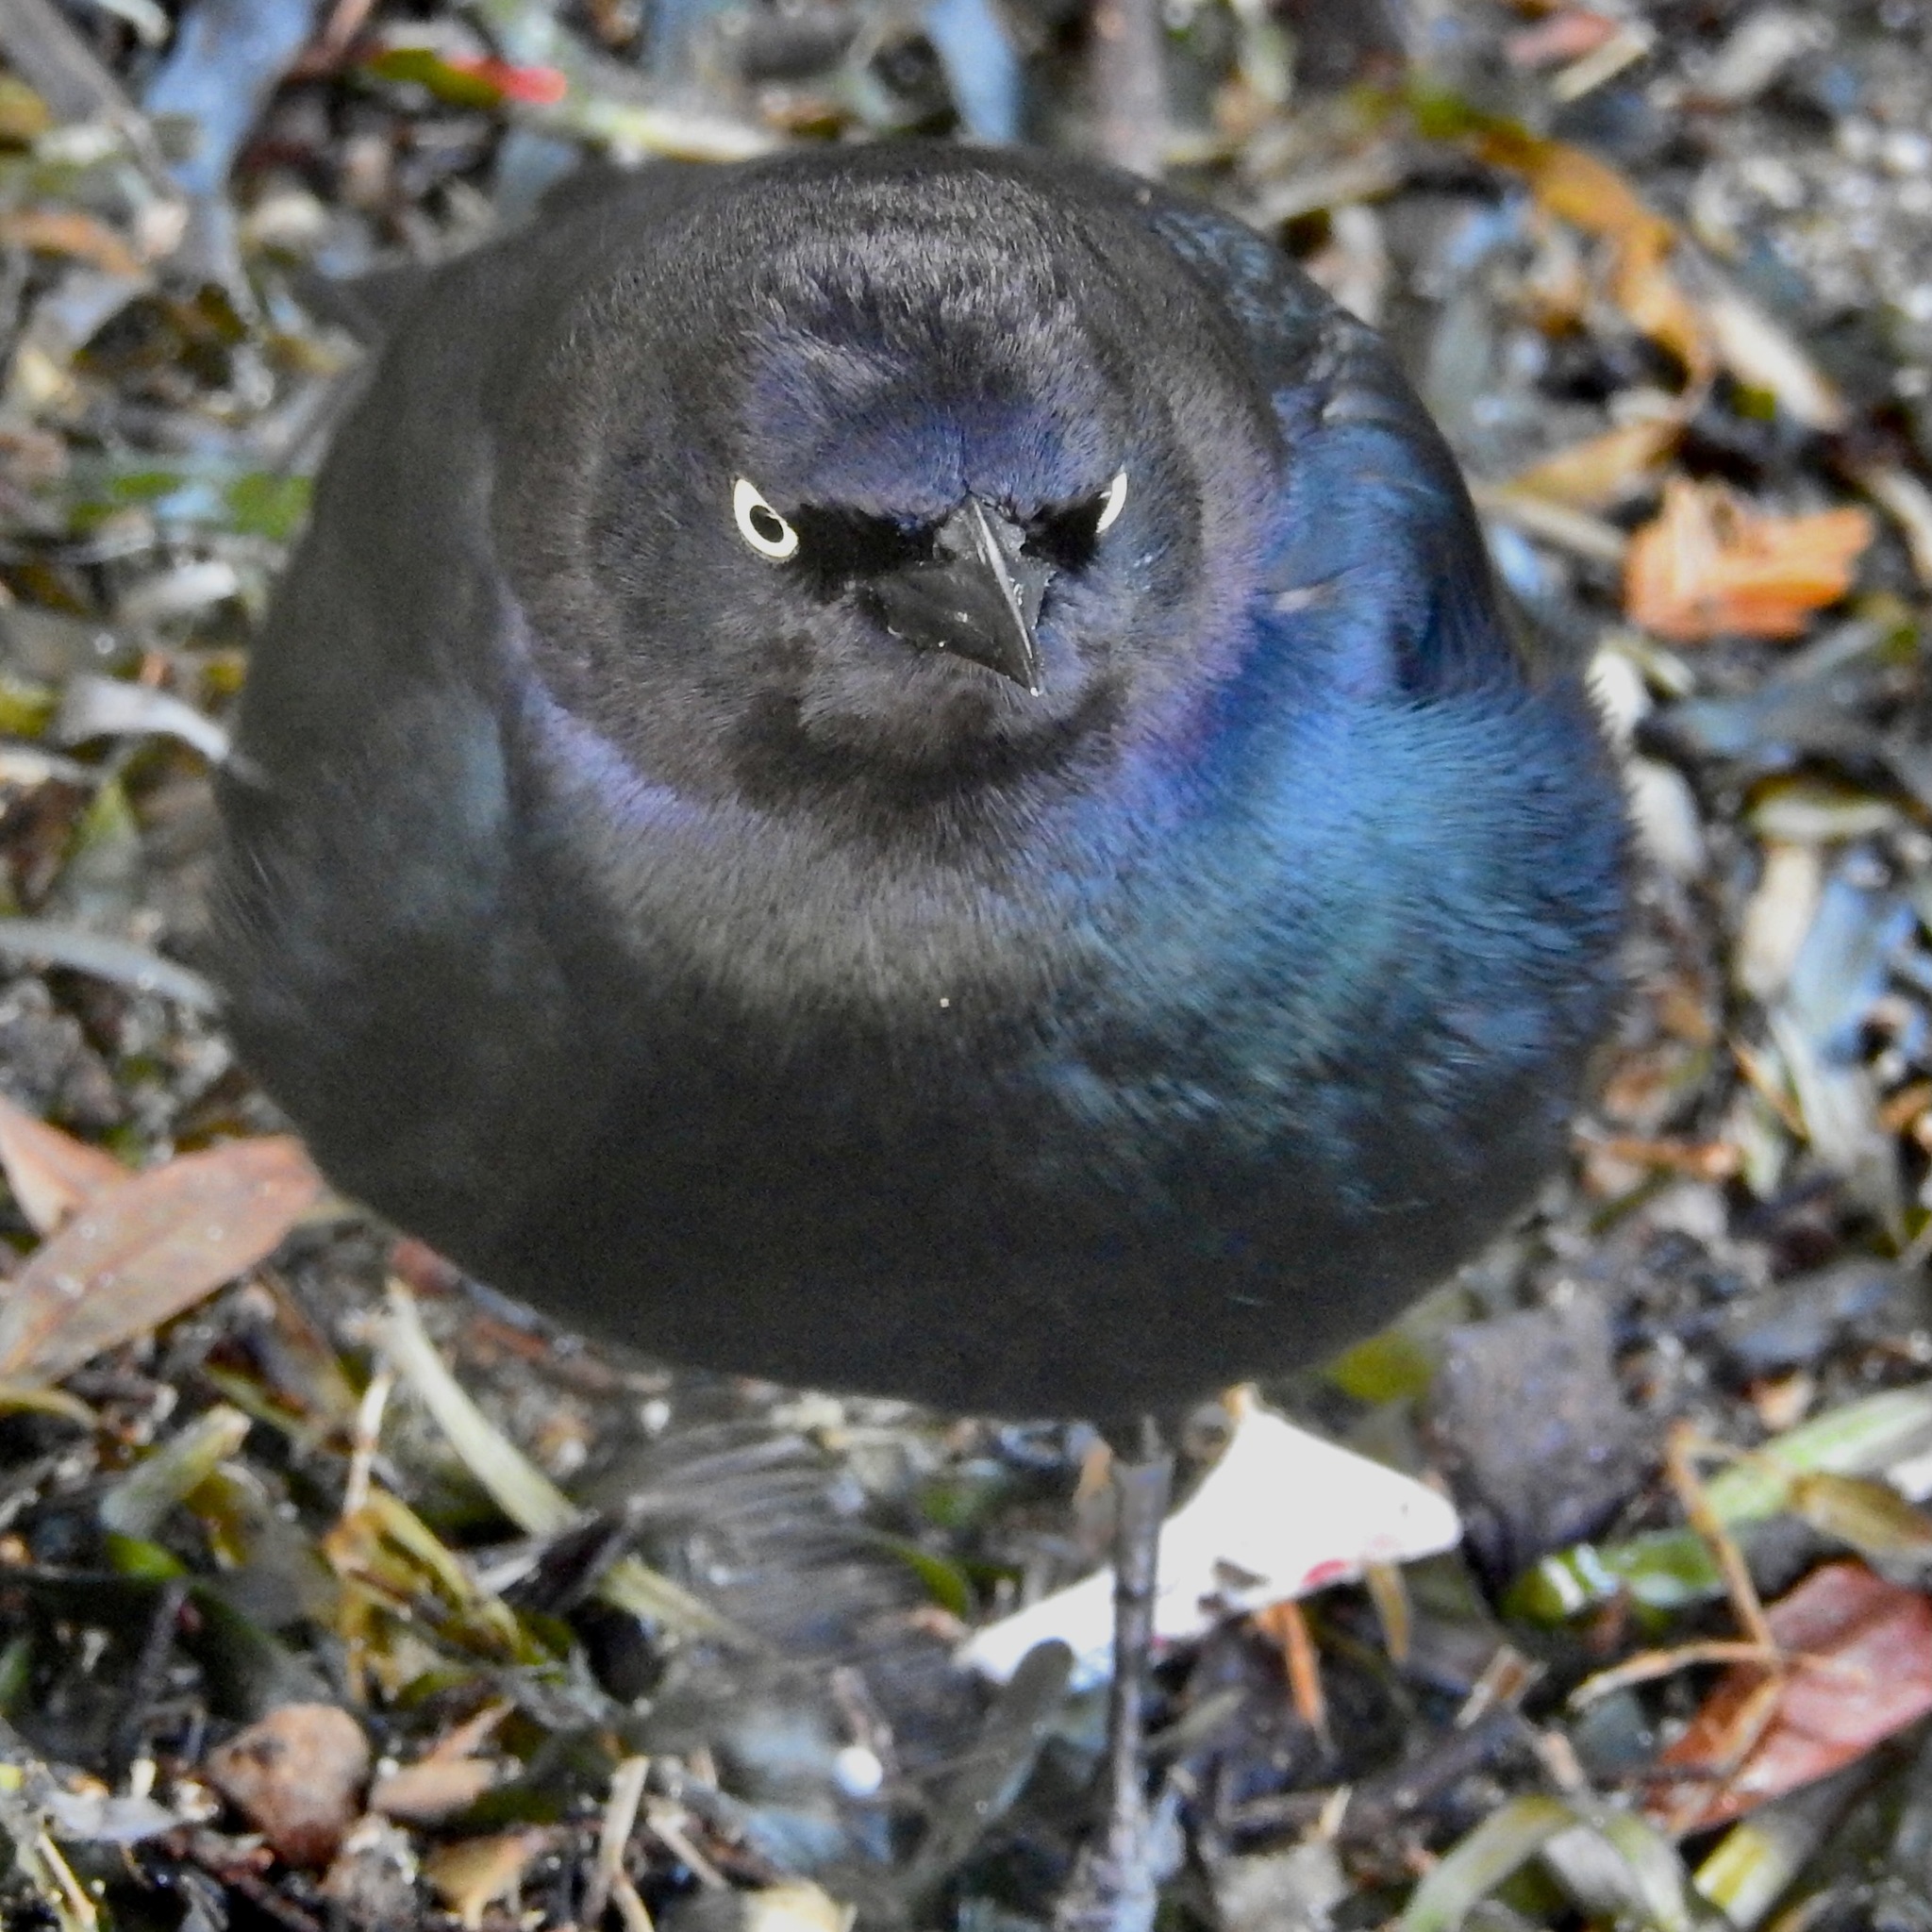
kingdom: Animalia
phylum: Chordata
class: Aves
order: Passeriformes
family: Icteridae
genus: Euphagus
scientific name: Euphagus cyanocephalus
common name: Brewer's blackbird
